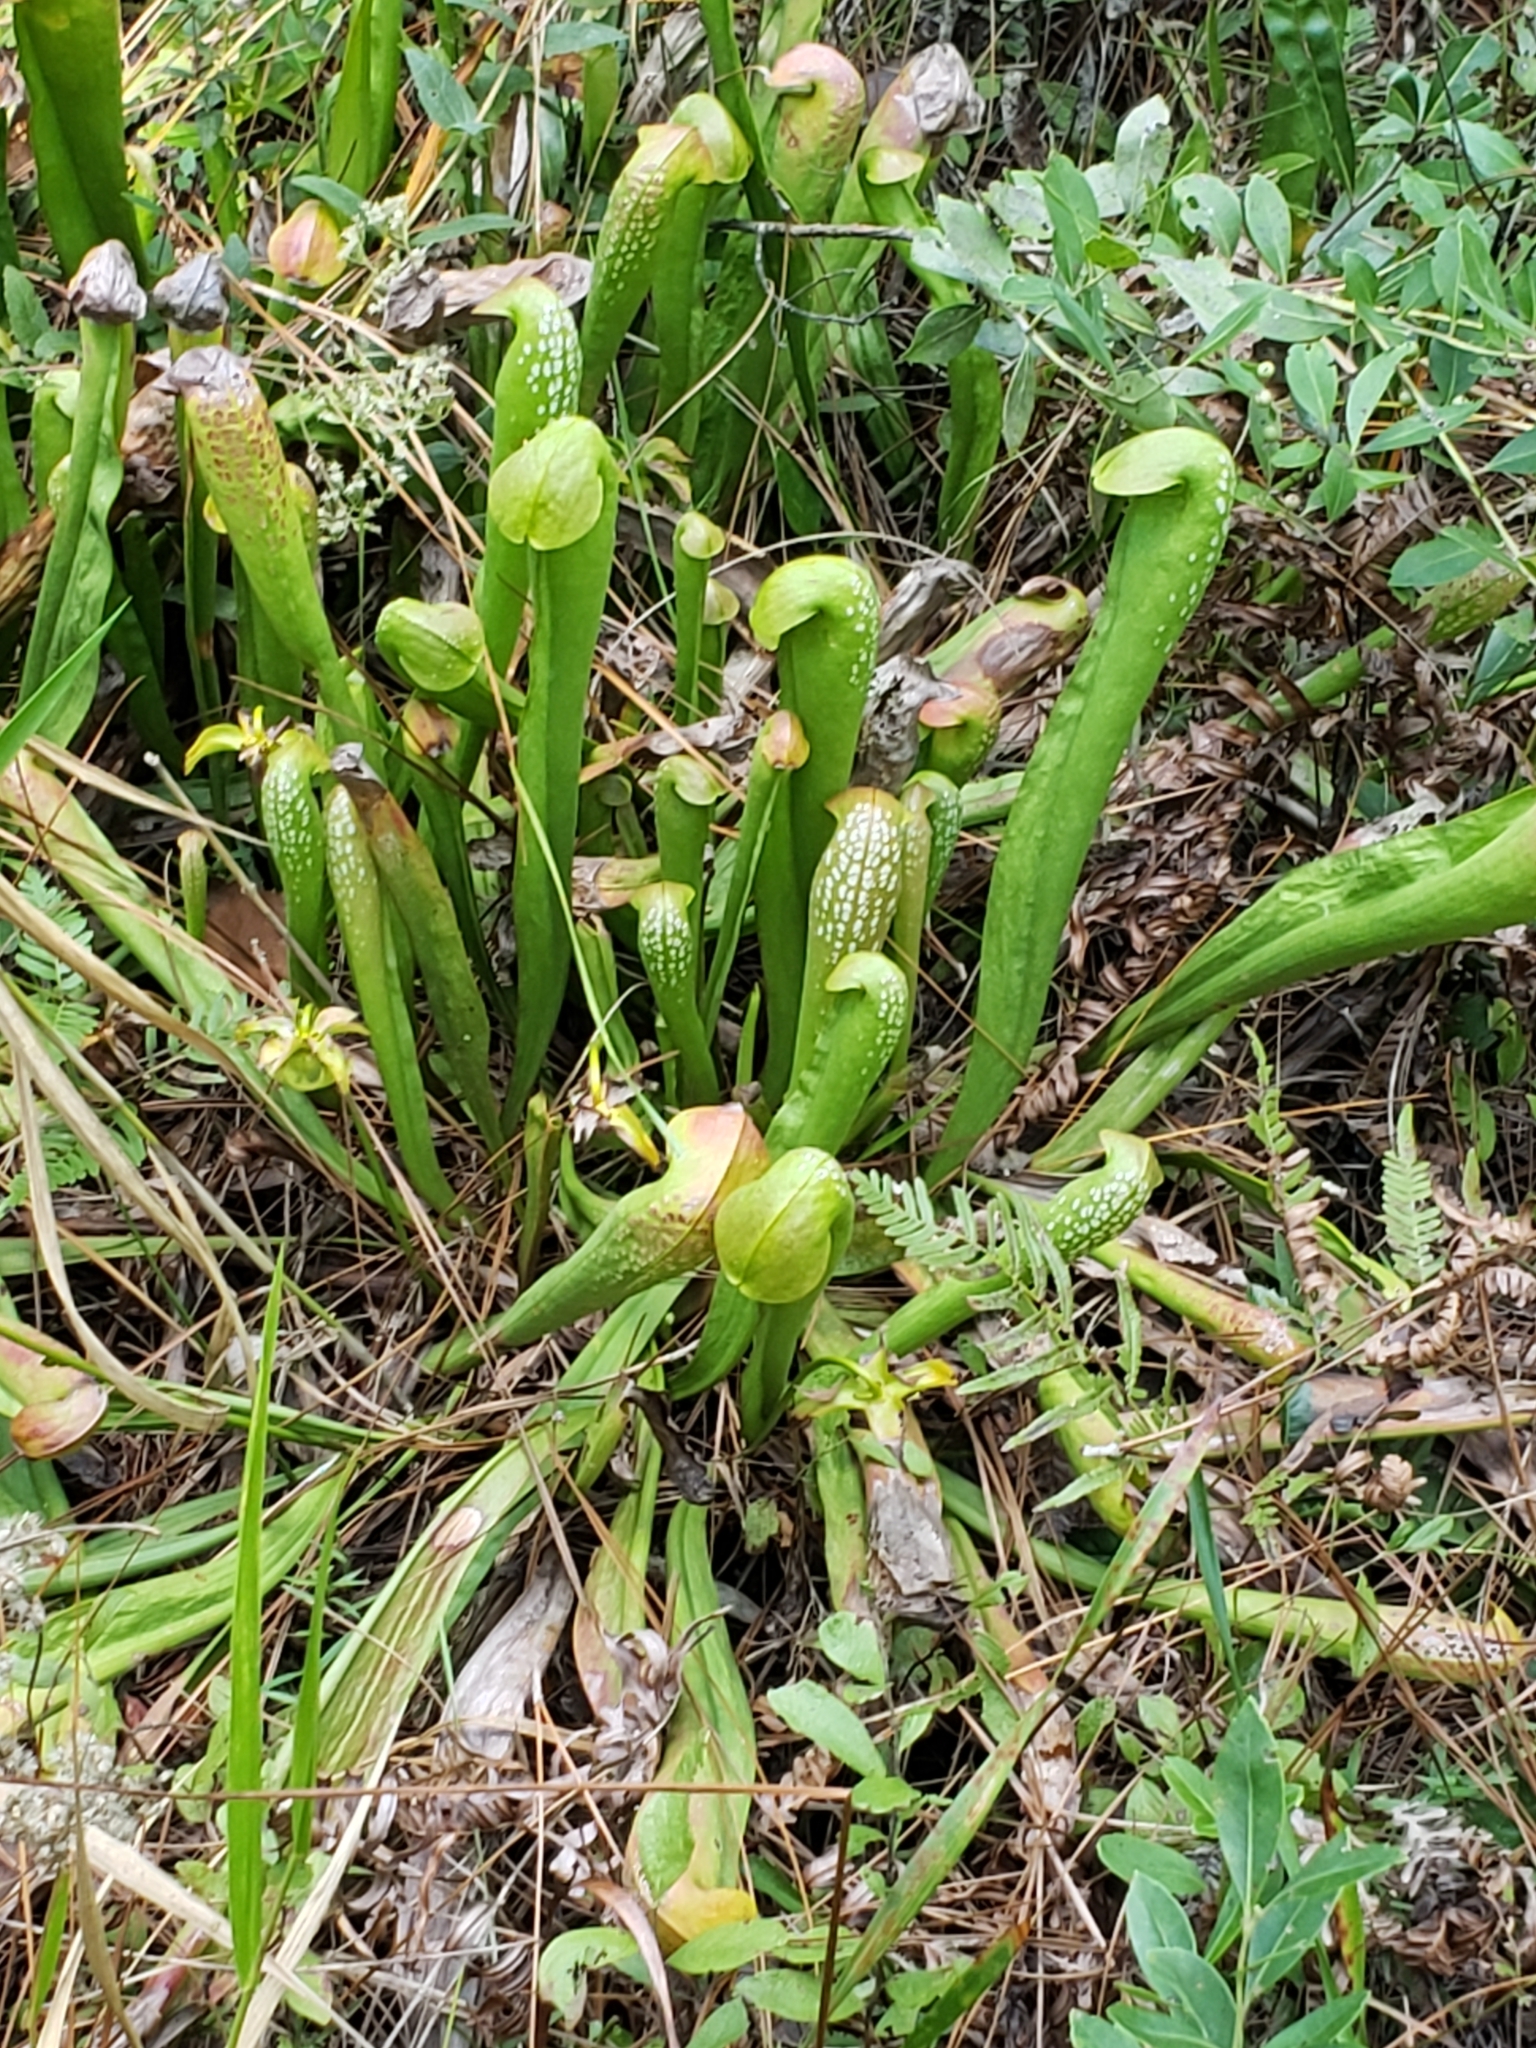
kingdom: Plantae
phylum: Tracheophyta
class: Magnoliopsida
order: Ericales
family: Sarraceniaceae
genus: Sarracenia
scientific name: Sarracenia minor
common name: Rainhat-trumpet
